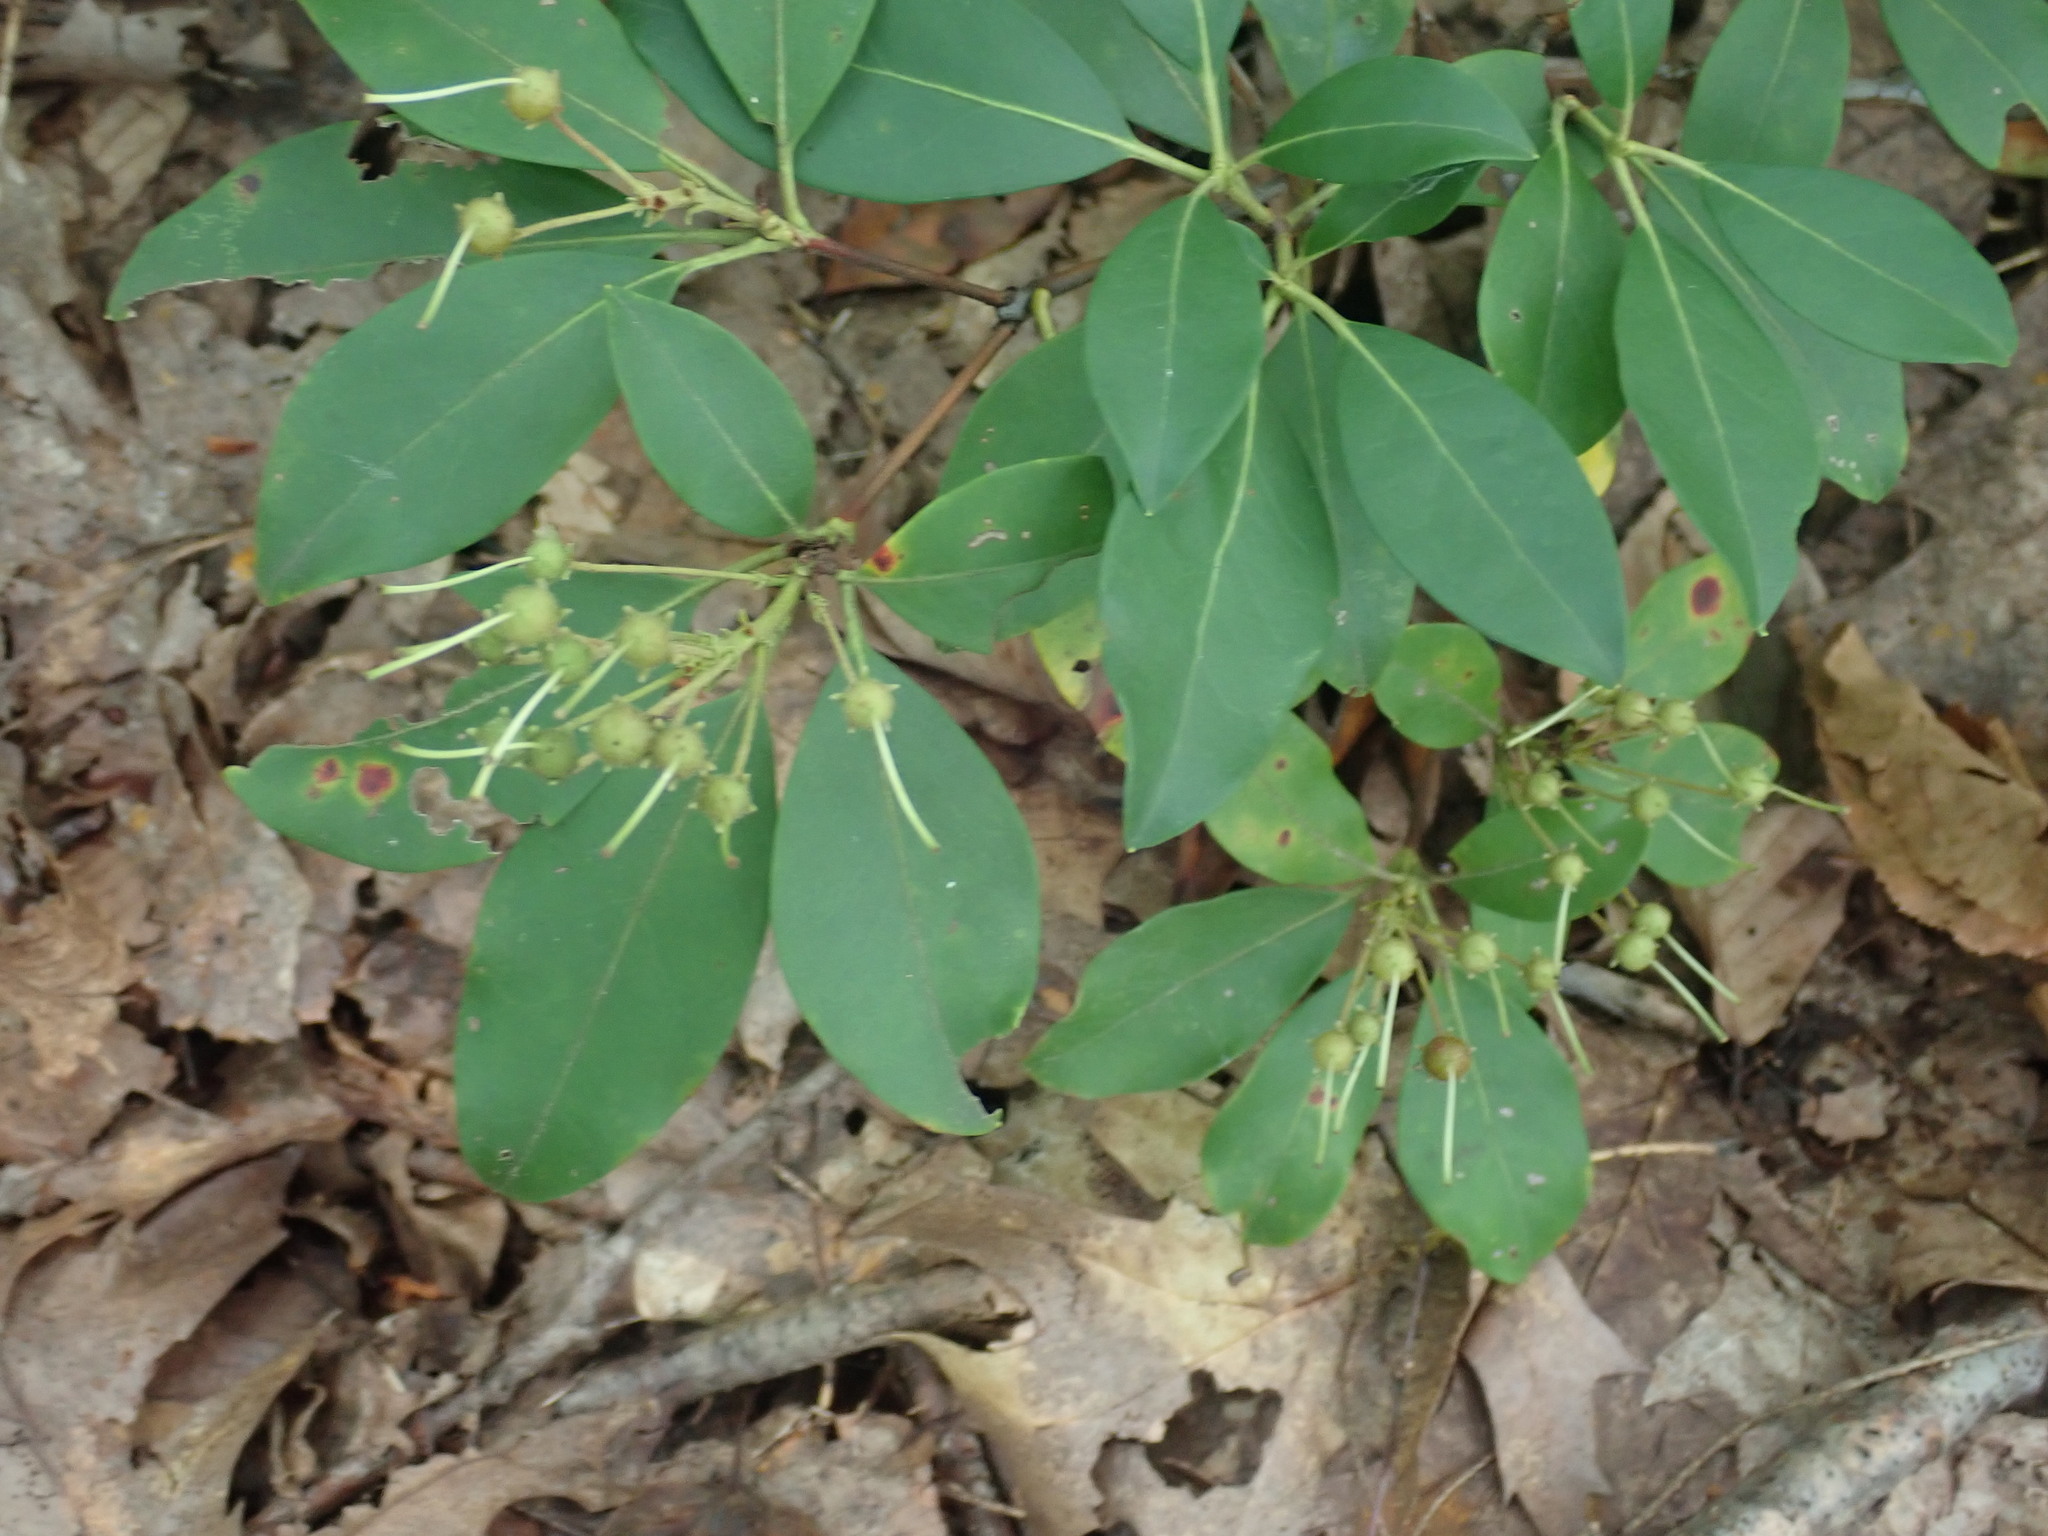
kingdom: Plantae
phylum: Tracheophyta
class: Magnoliopsida
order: Ericales
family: Ericaceae
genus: Kalmia
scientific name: Kalmia latifolia
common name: Mountain-laurel
